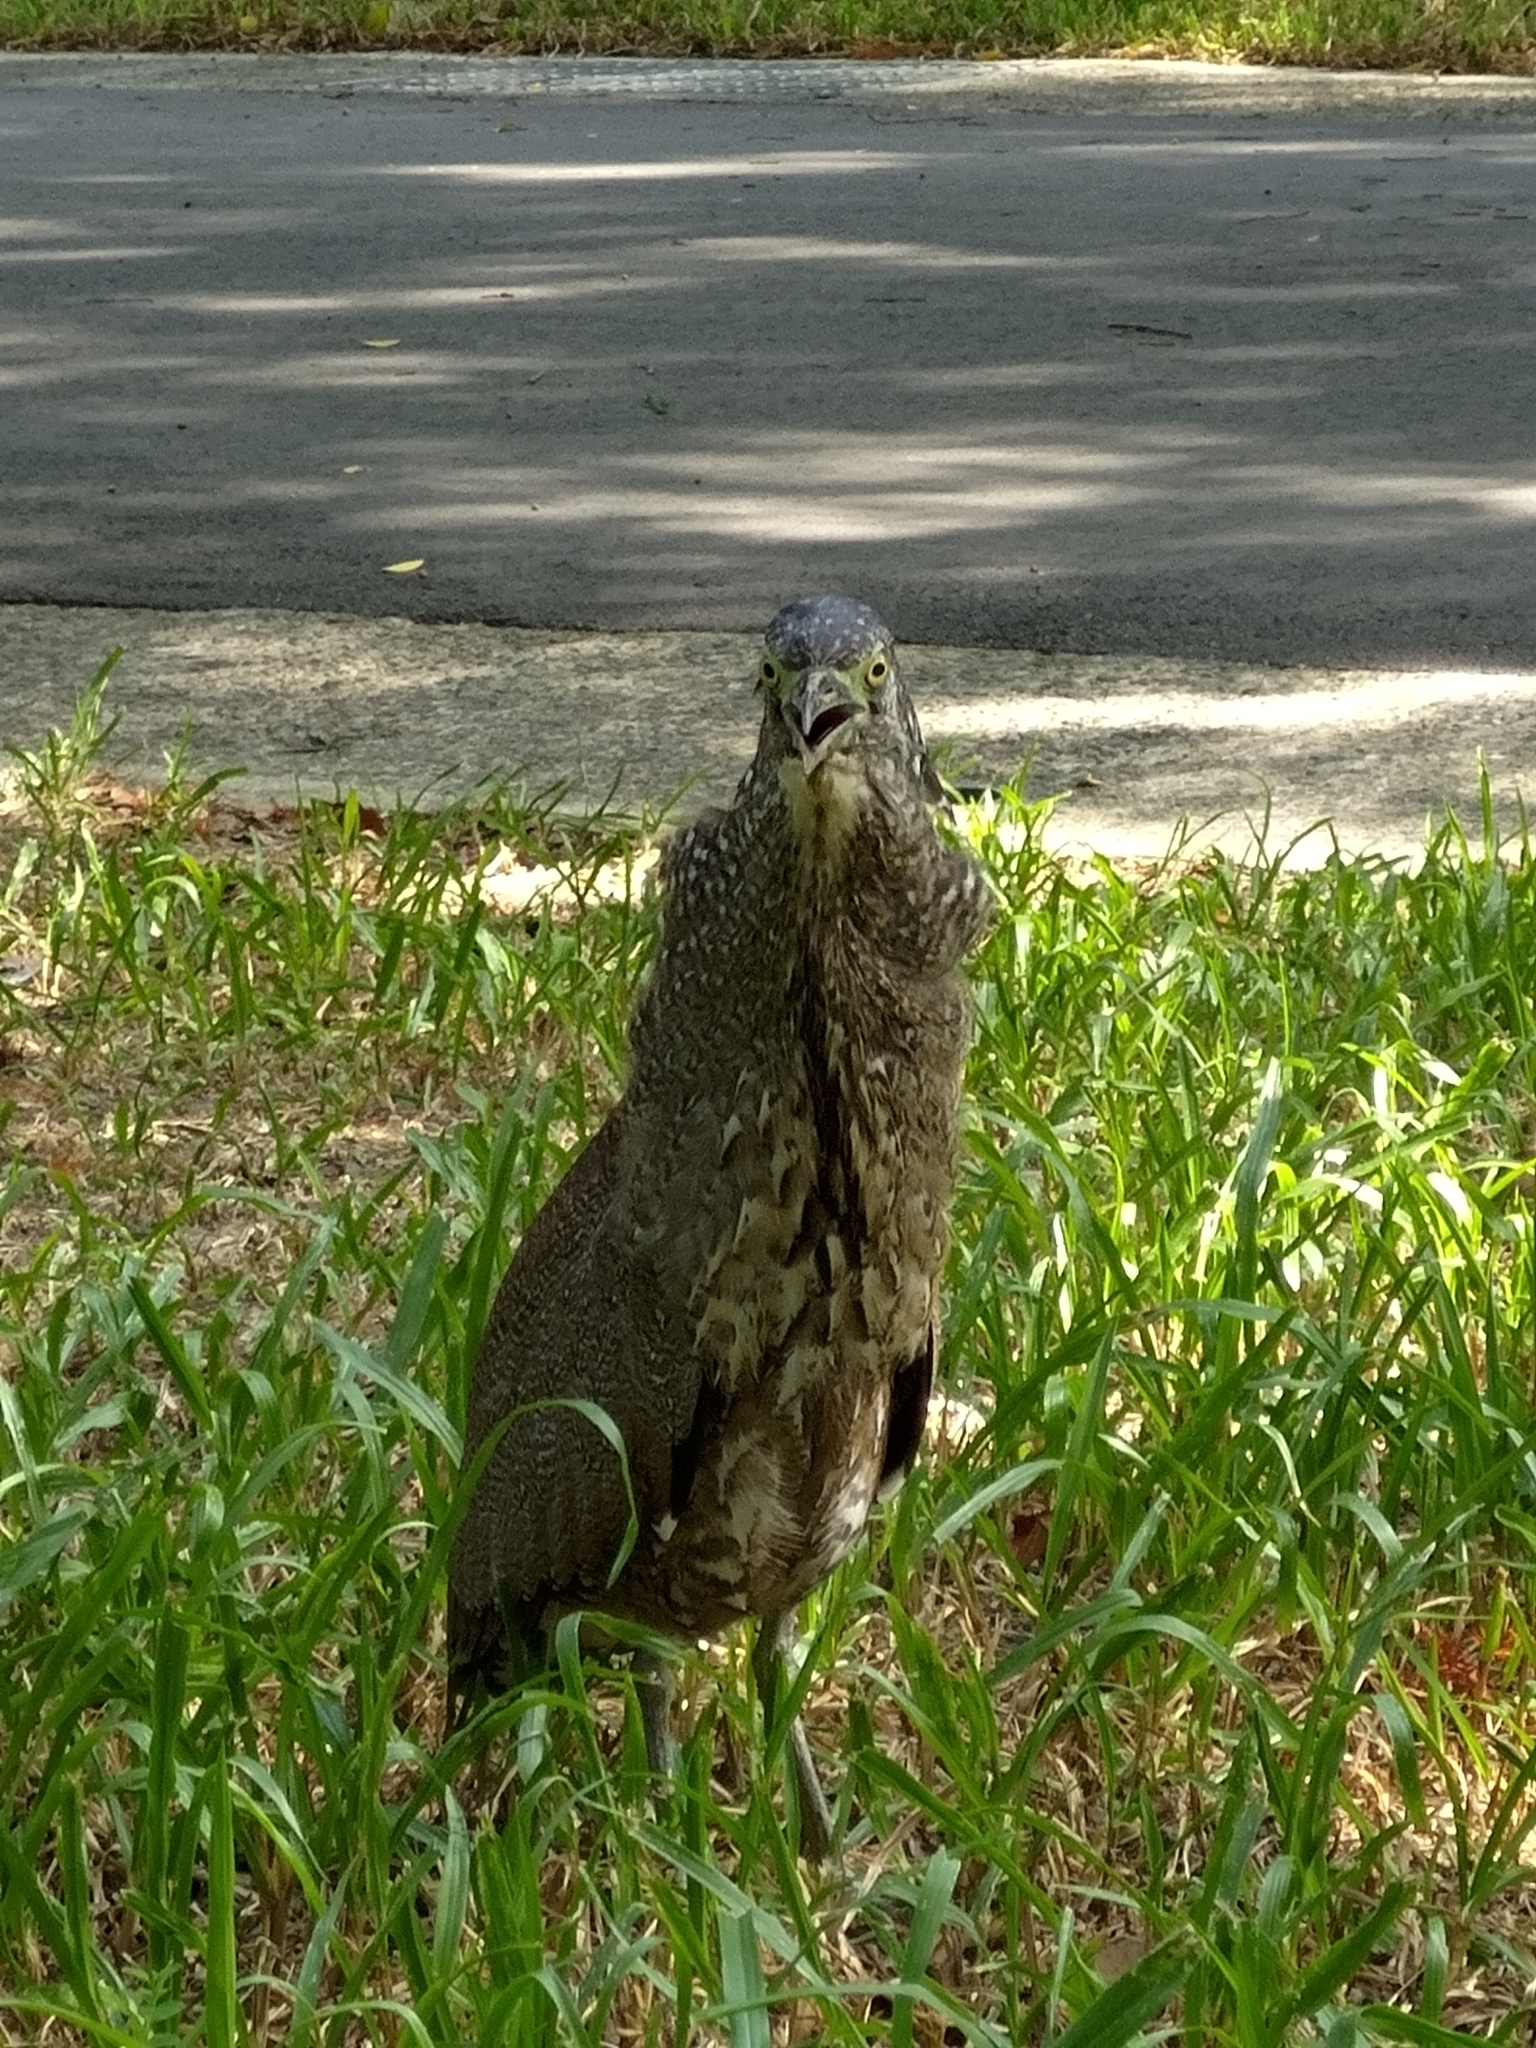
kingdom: Animalia
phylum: Chordata
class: Aves
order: Pelecaniformes
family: Ardeidae
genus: Gorsachius
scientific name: Gorsachius melanolophus
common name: Malayan night heron
